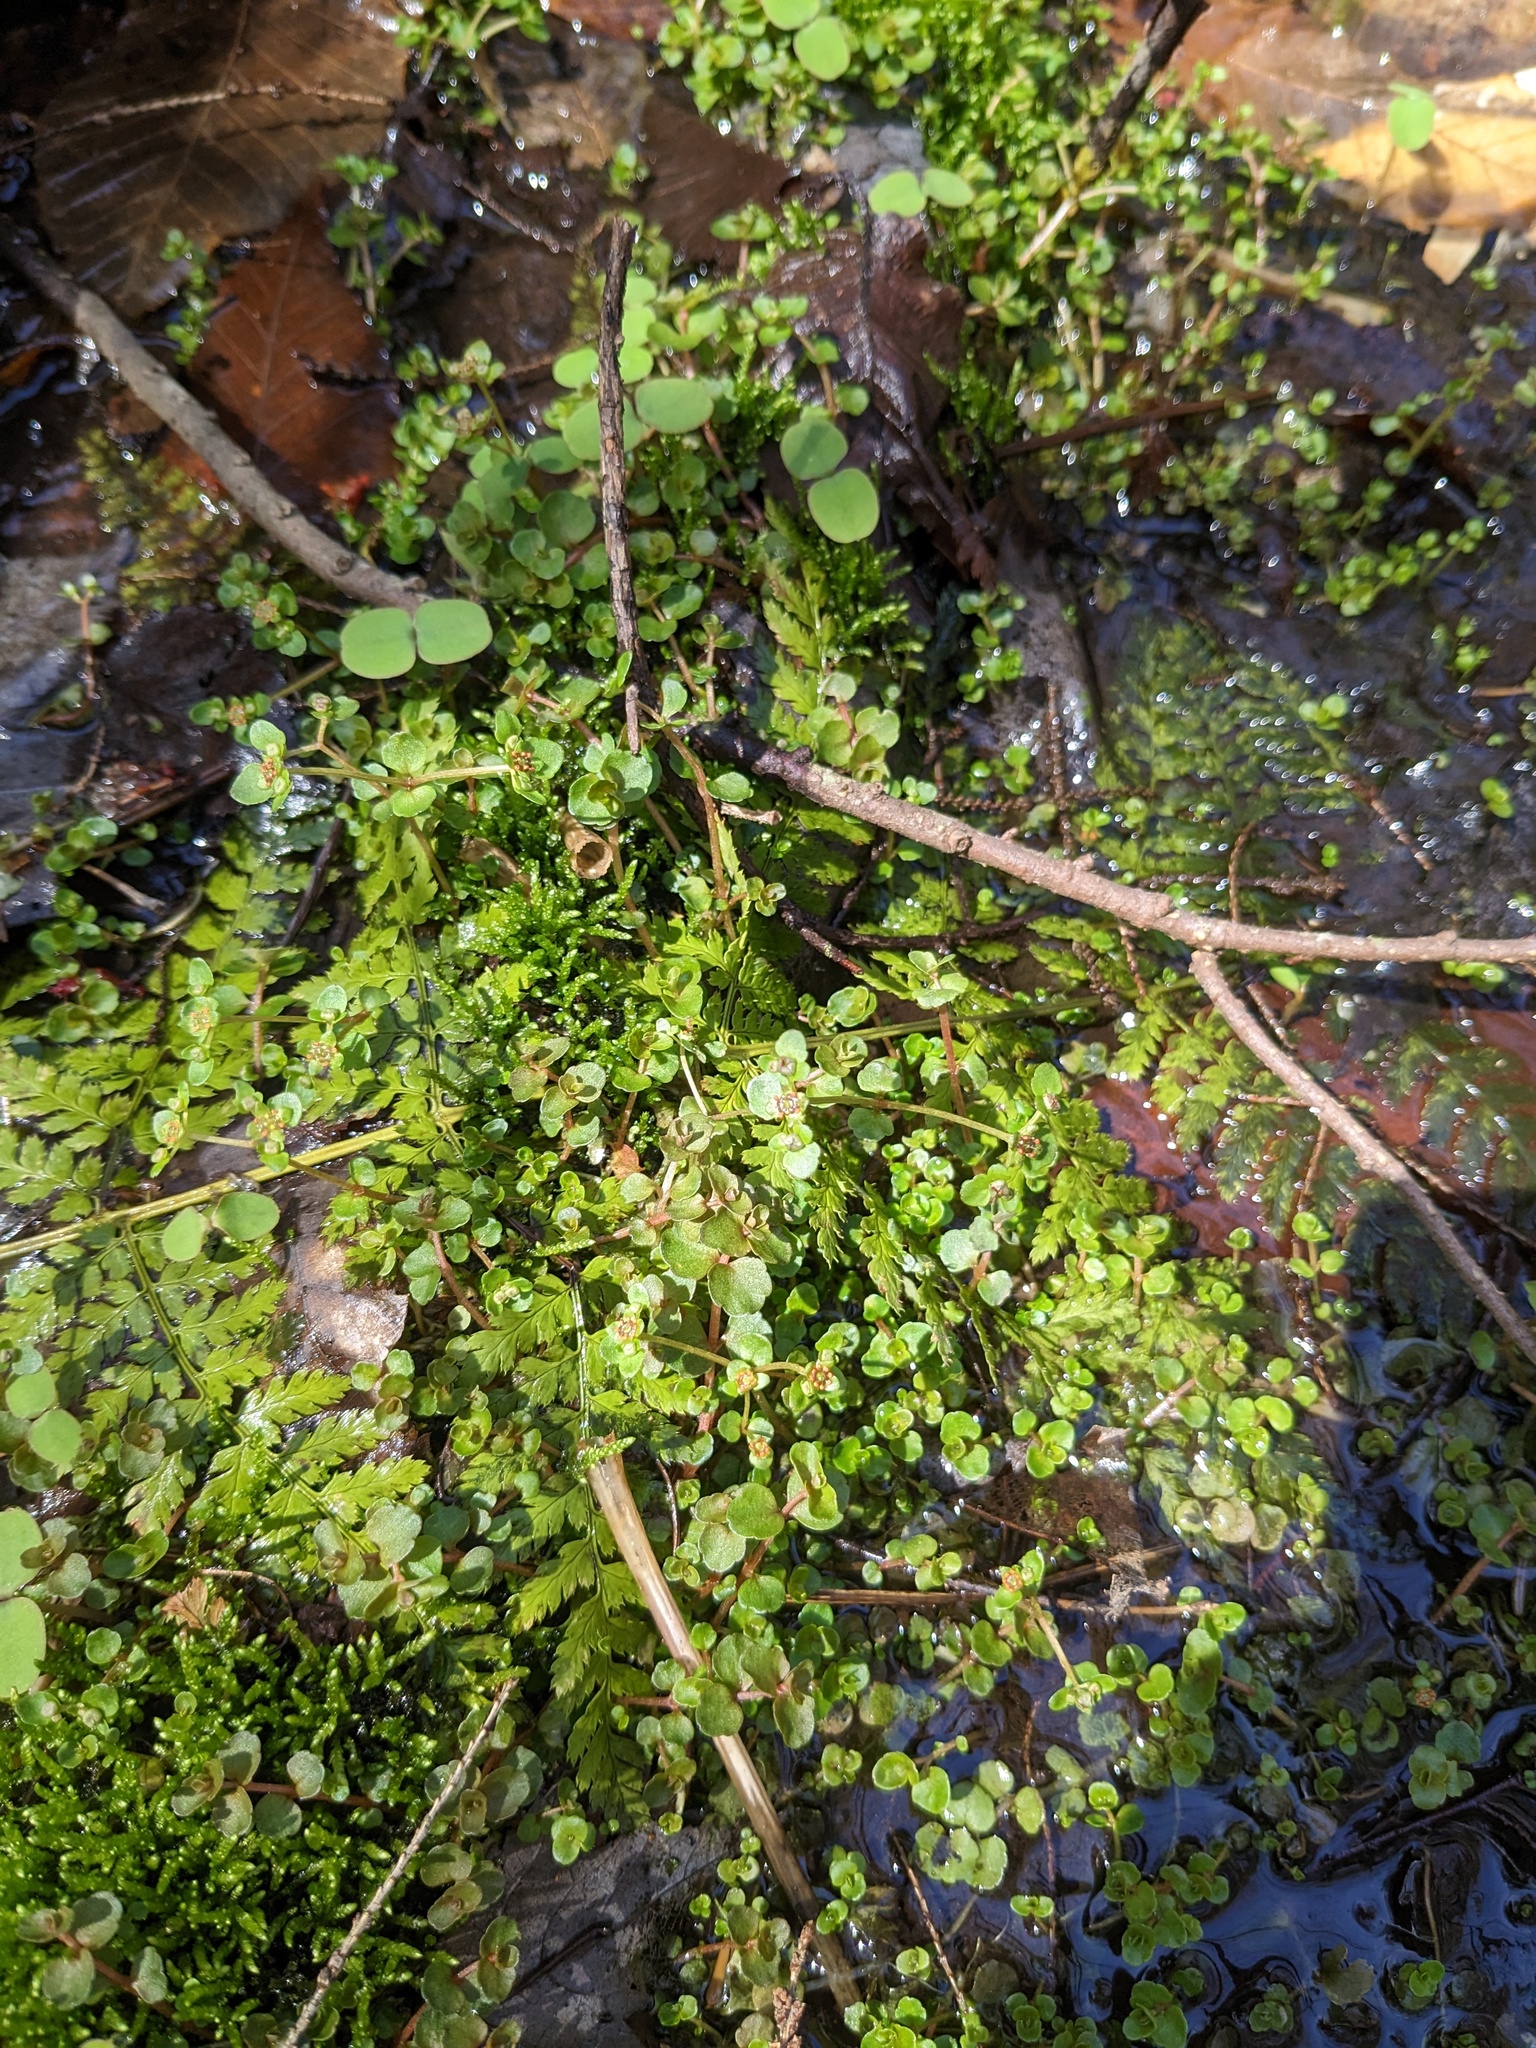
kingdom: Plantae
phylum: Tracheophyta
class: Magnoliopsida
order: Saxifragales
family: Saxifragaceae
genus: Chrysosplenium
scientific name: Chrysosplenium americanum
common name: American golden-saxifrage
